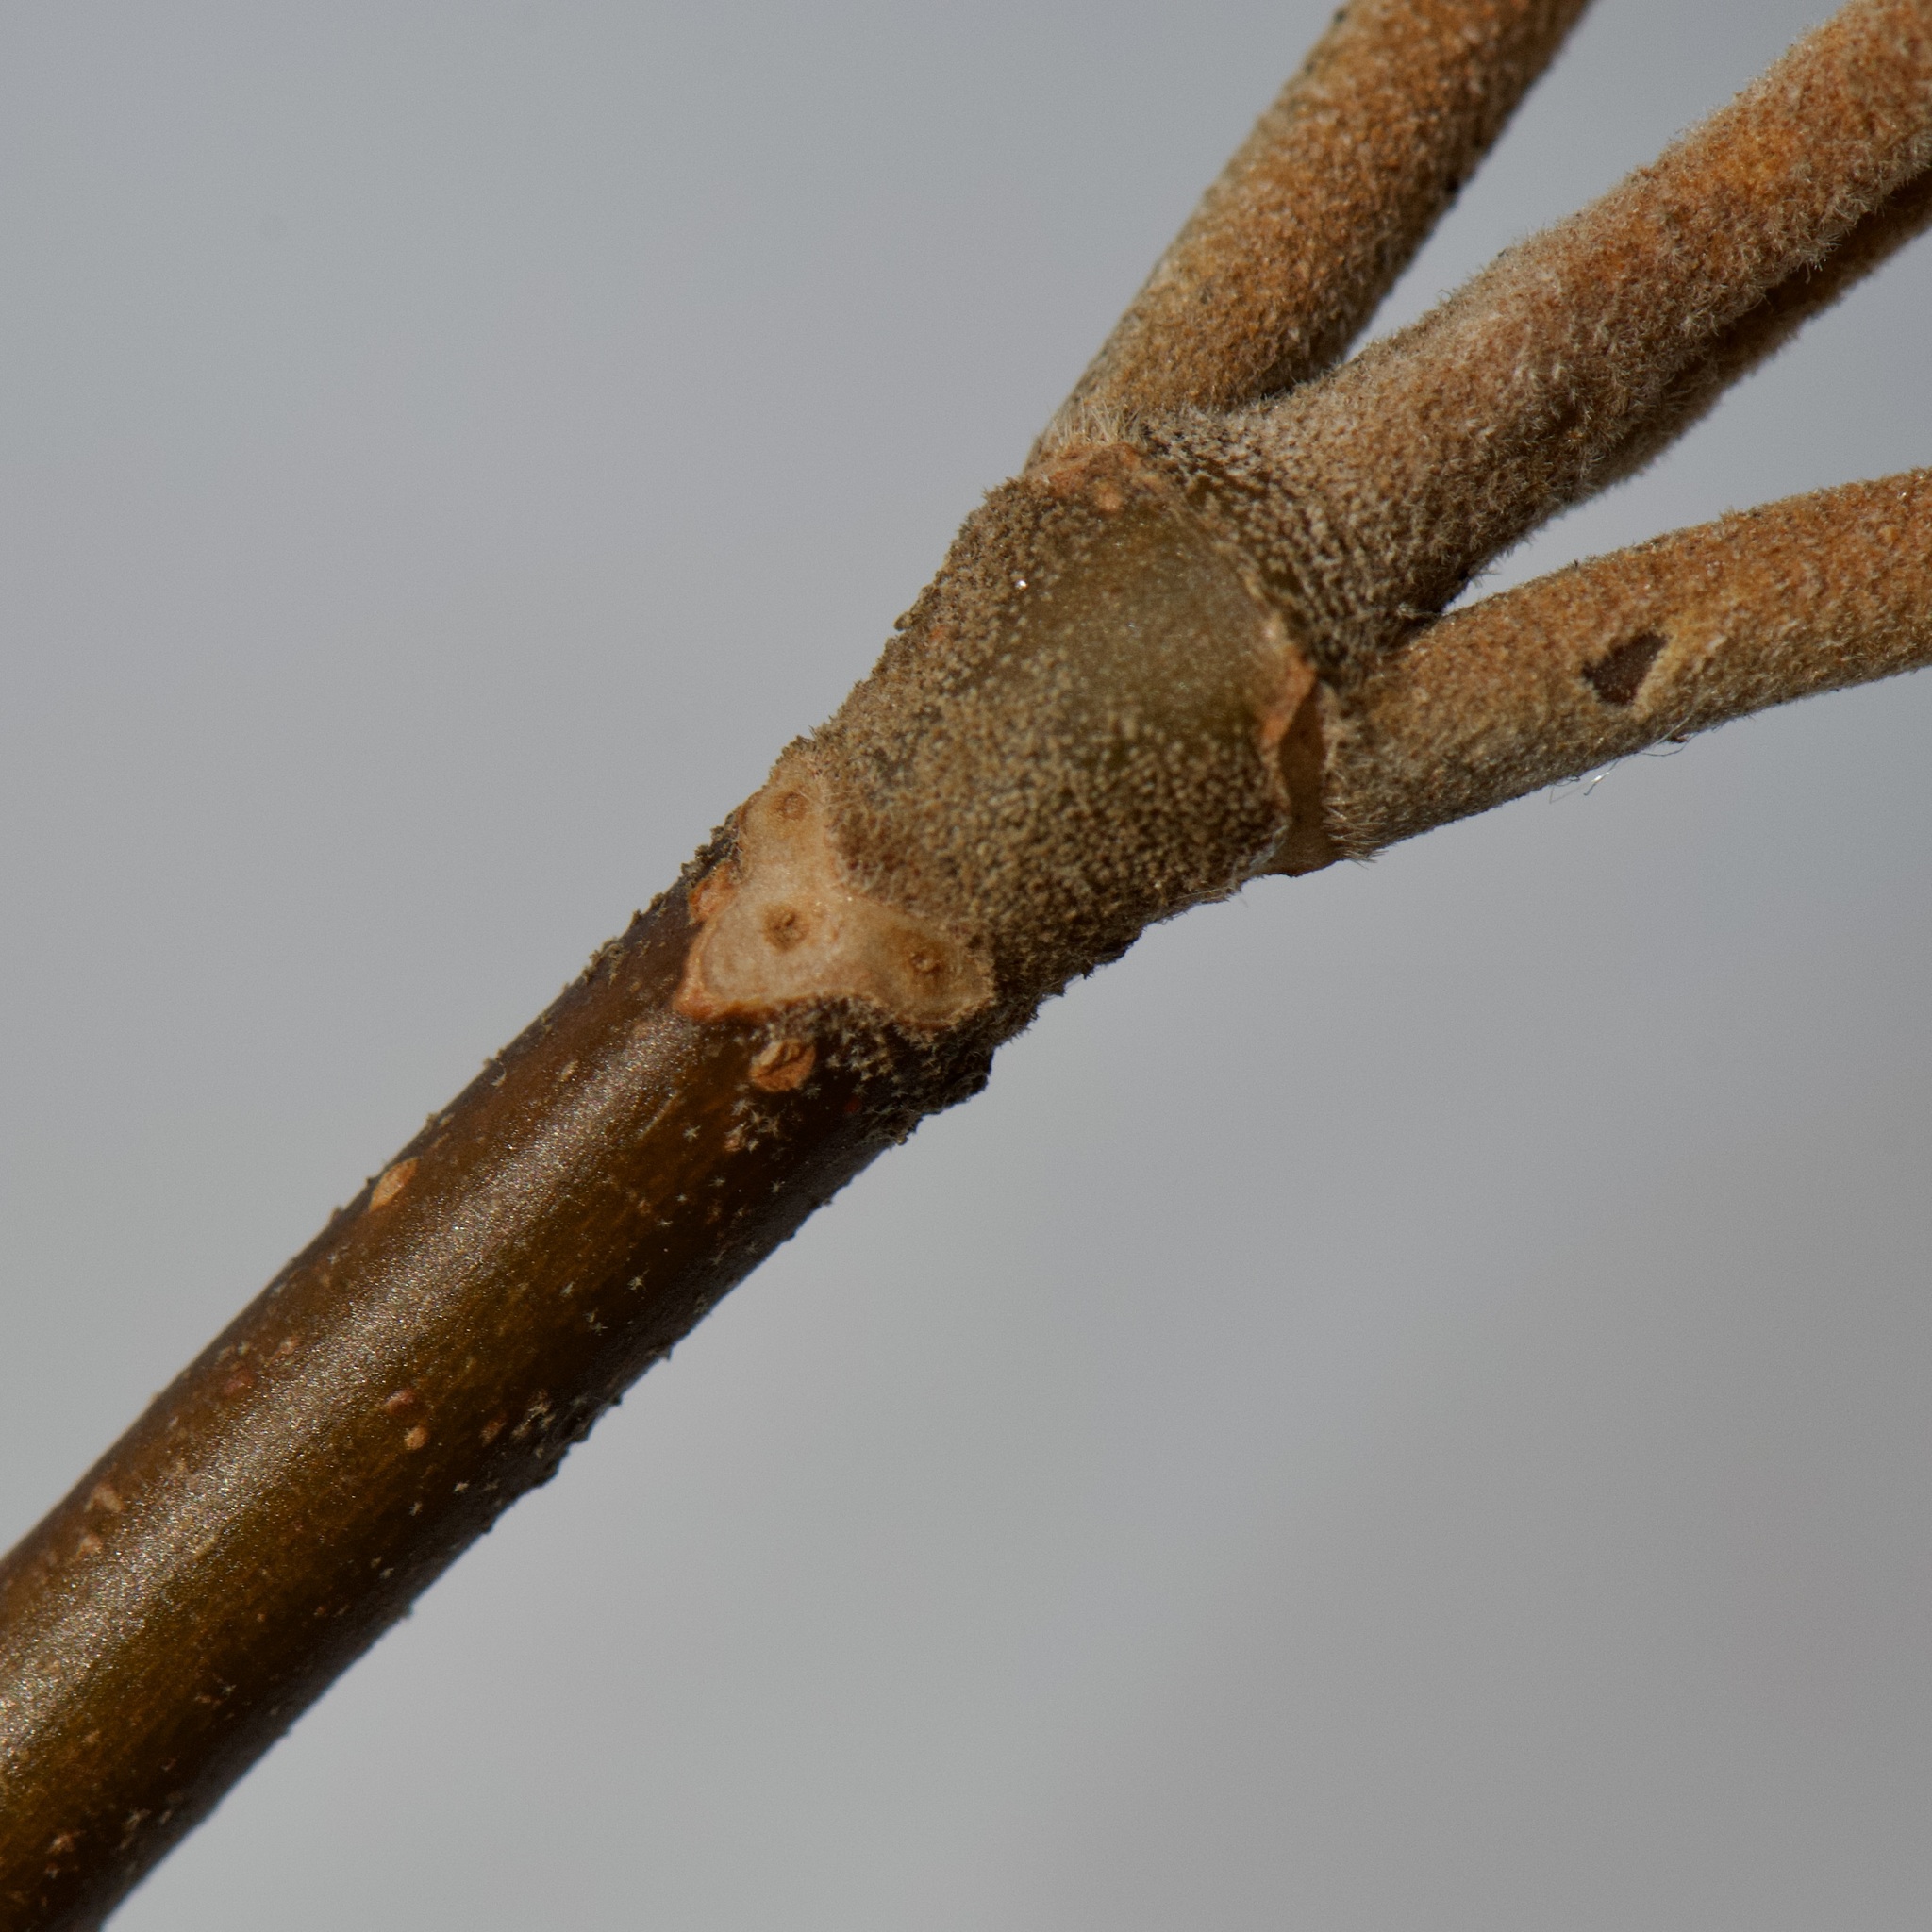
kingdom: Plantae
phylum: Tracheophyta
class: Magnoliopsida
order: Dipsacales
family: Viburnaceae
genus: Viburnum
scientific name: Viburnum lantanoides
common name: Hobblebush
